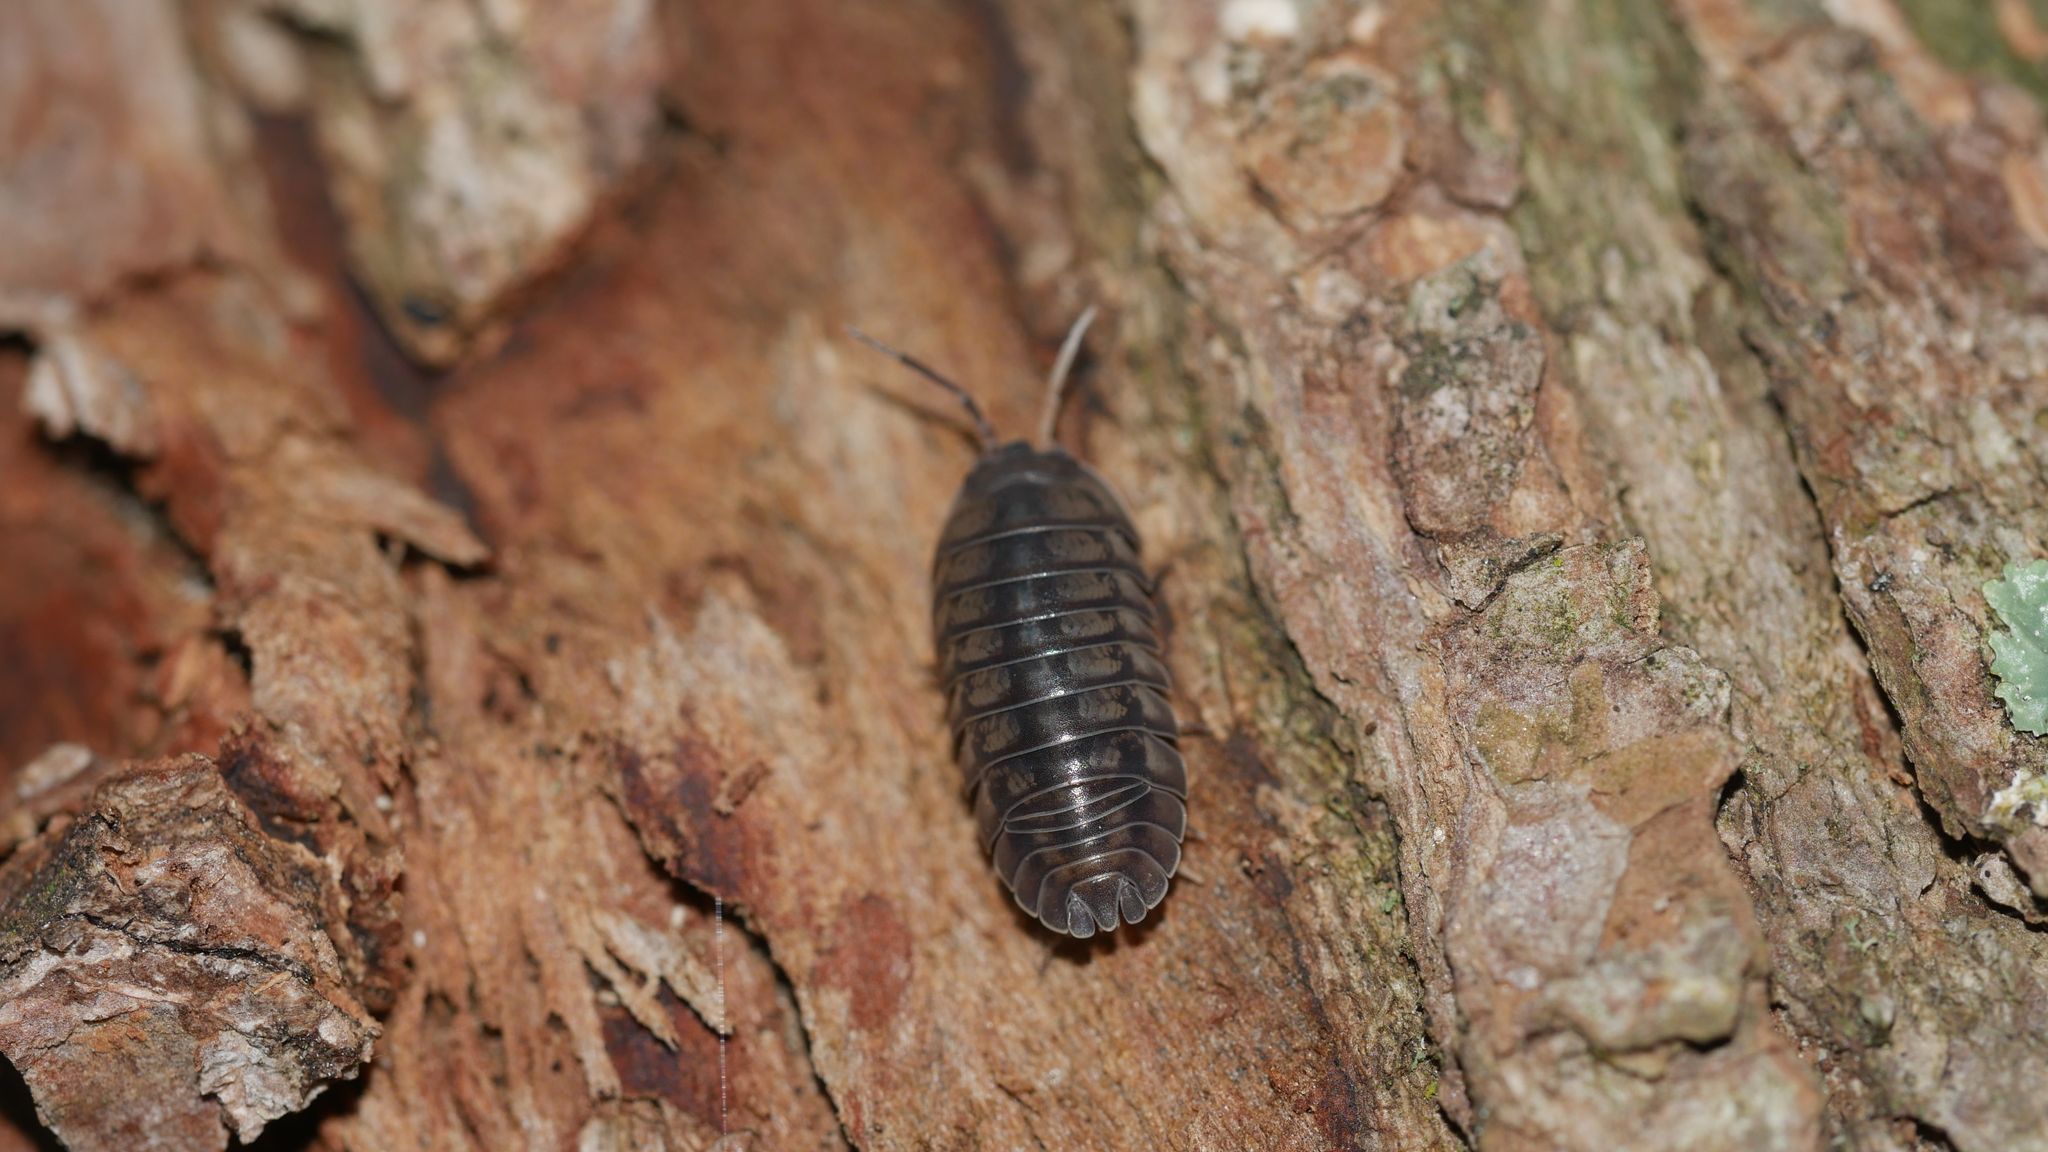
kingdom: Animalia
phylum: Arthropoda
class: Malacostraca
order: Isopoda
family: Armadillidiidae
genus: Armadillidium
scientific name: Armadillidium nasatum
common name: Isopod
